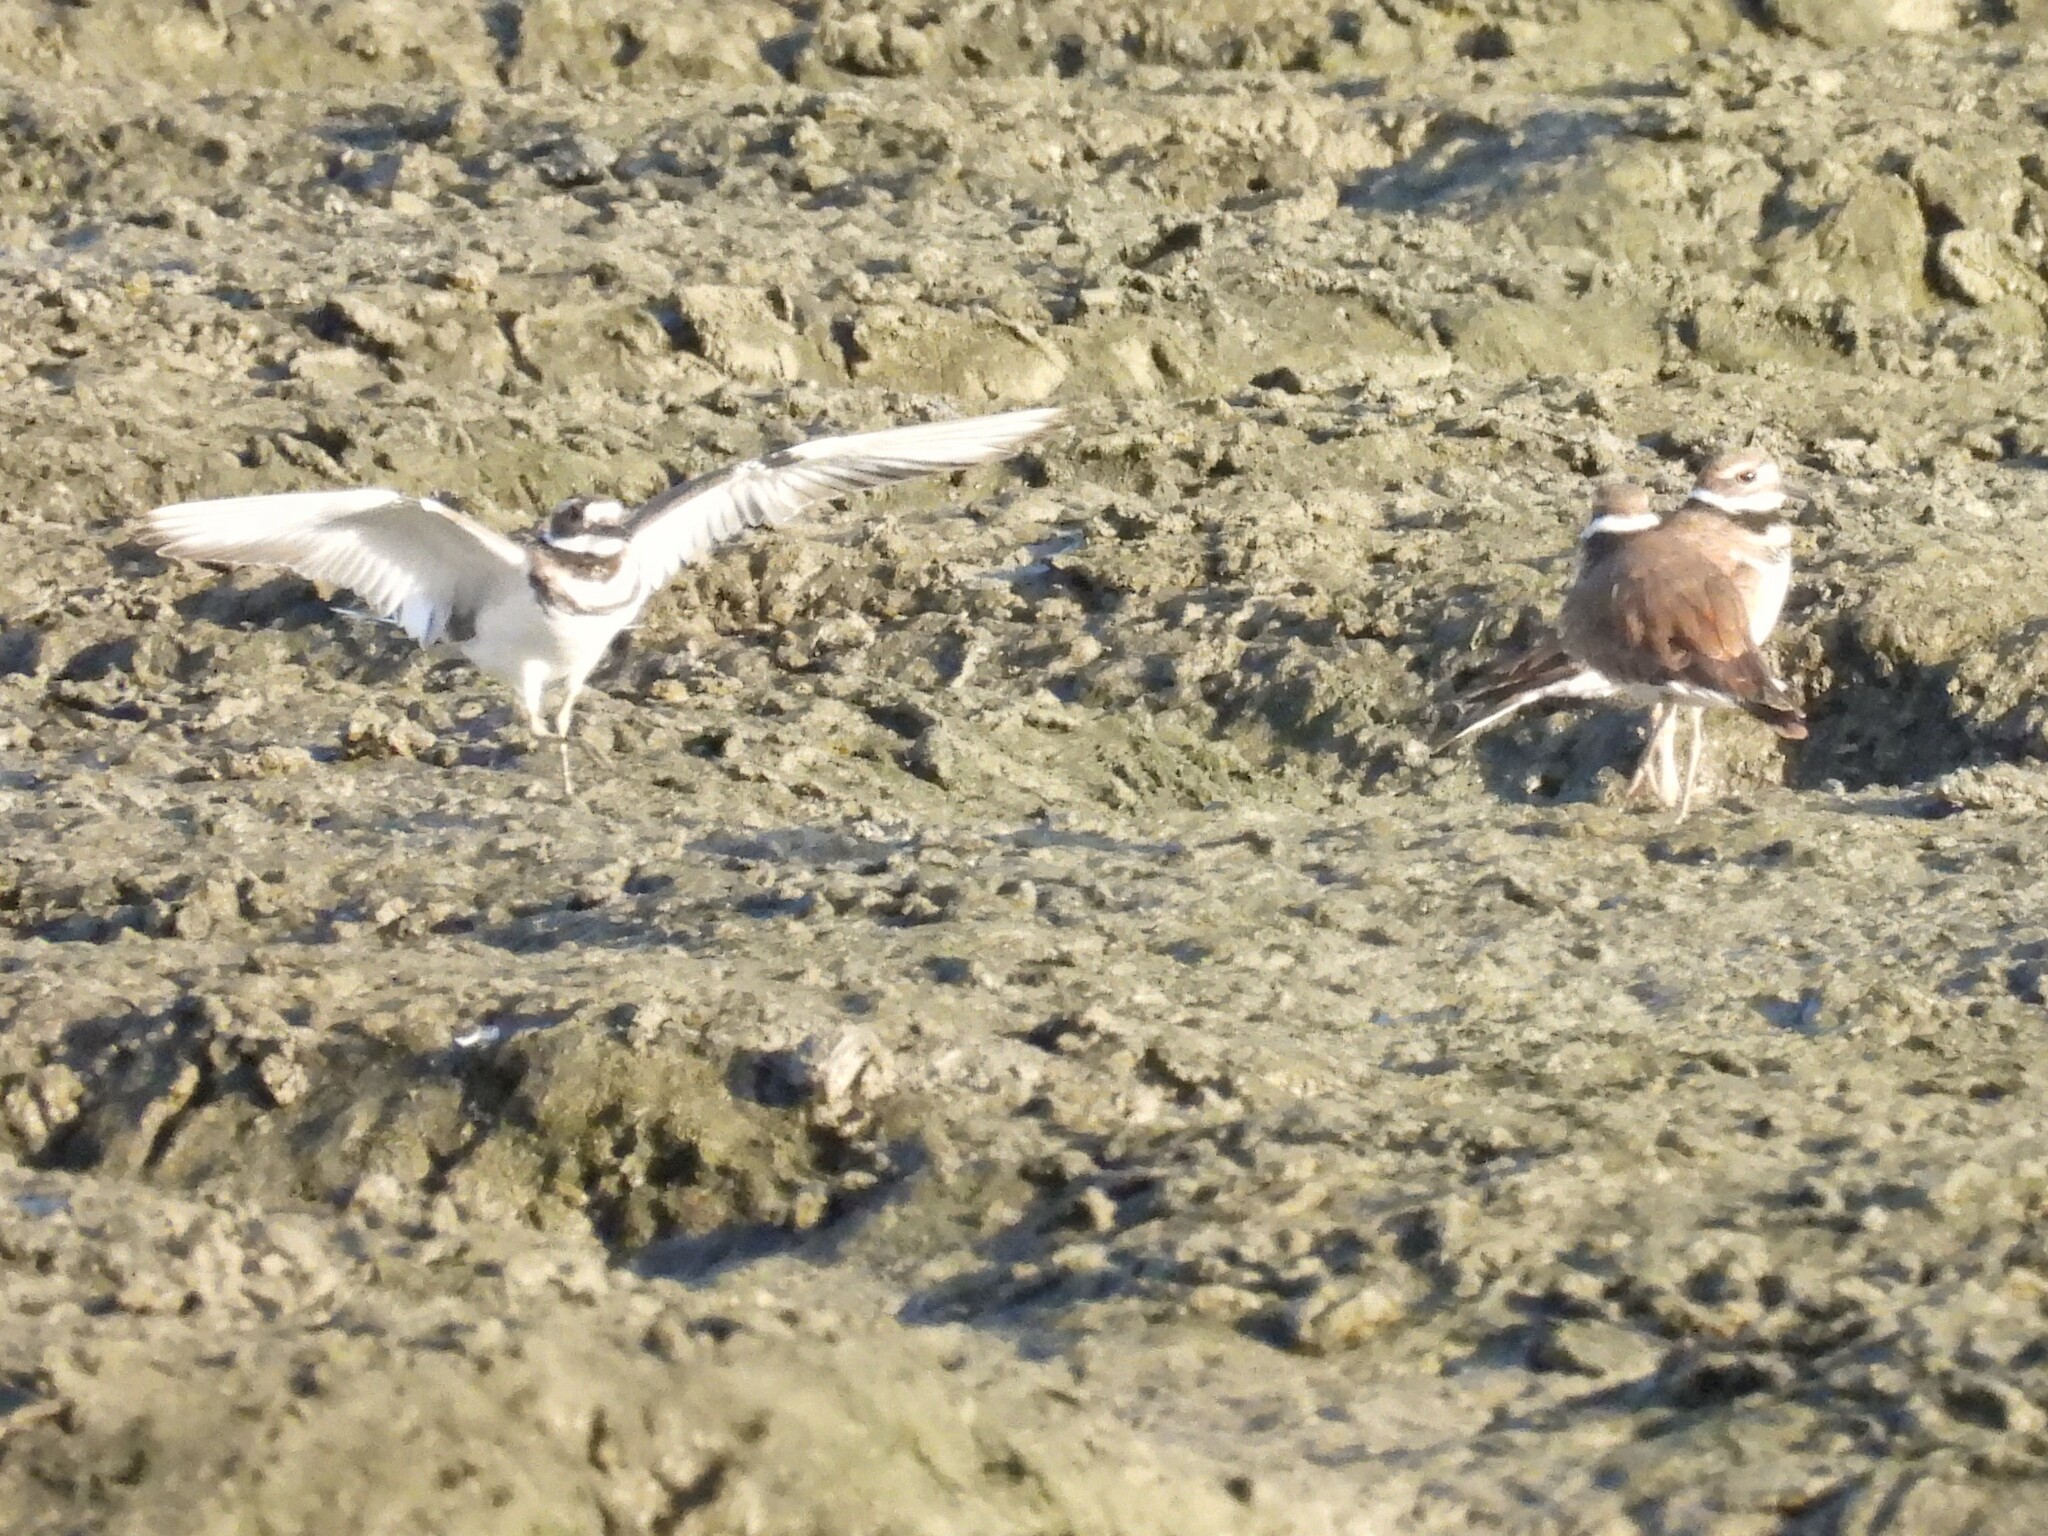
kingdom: Animalia
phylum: Chordata
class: Aves
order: Charadriiformes
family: Charadriidae
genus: Charadrius
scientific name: Charadrius vociferus
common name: Killdeer
